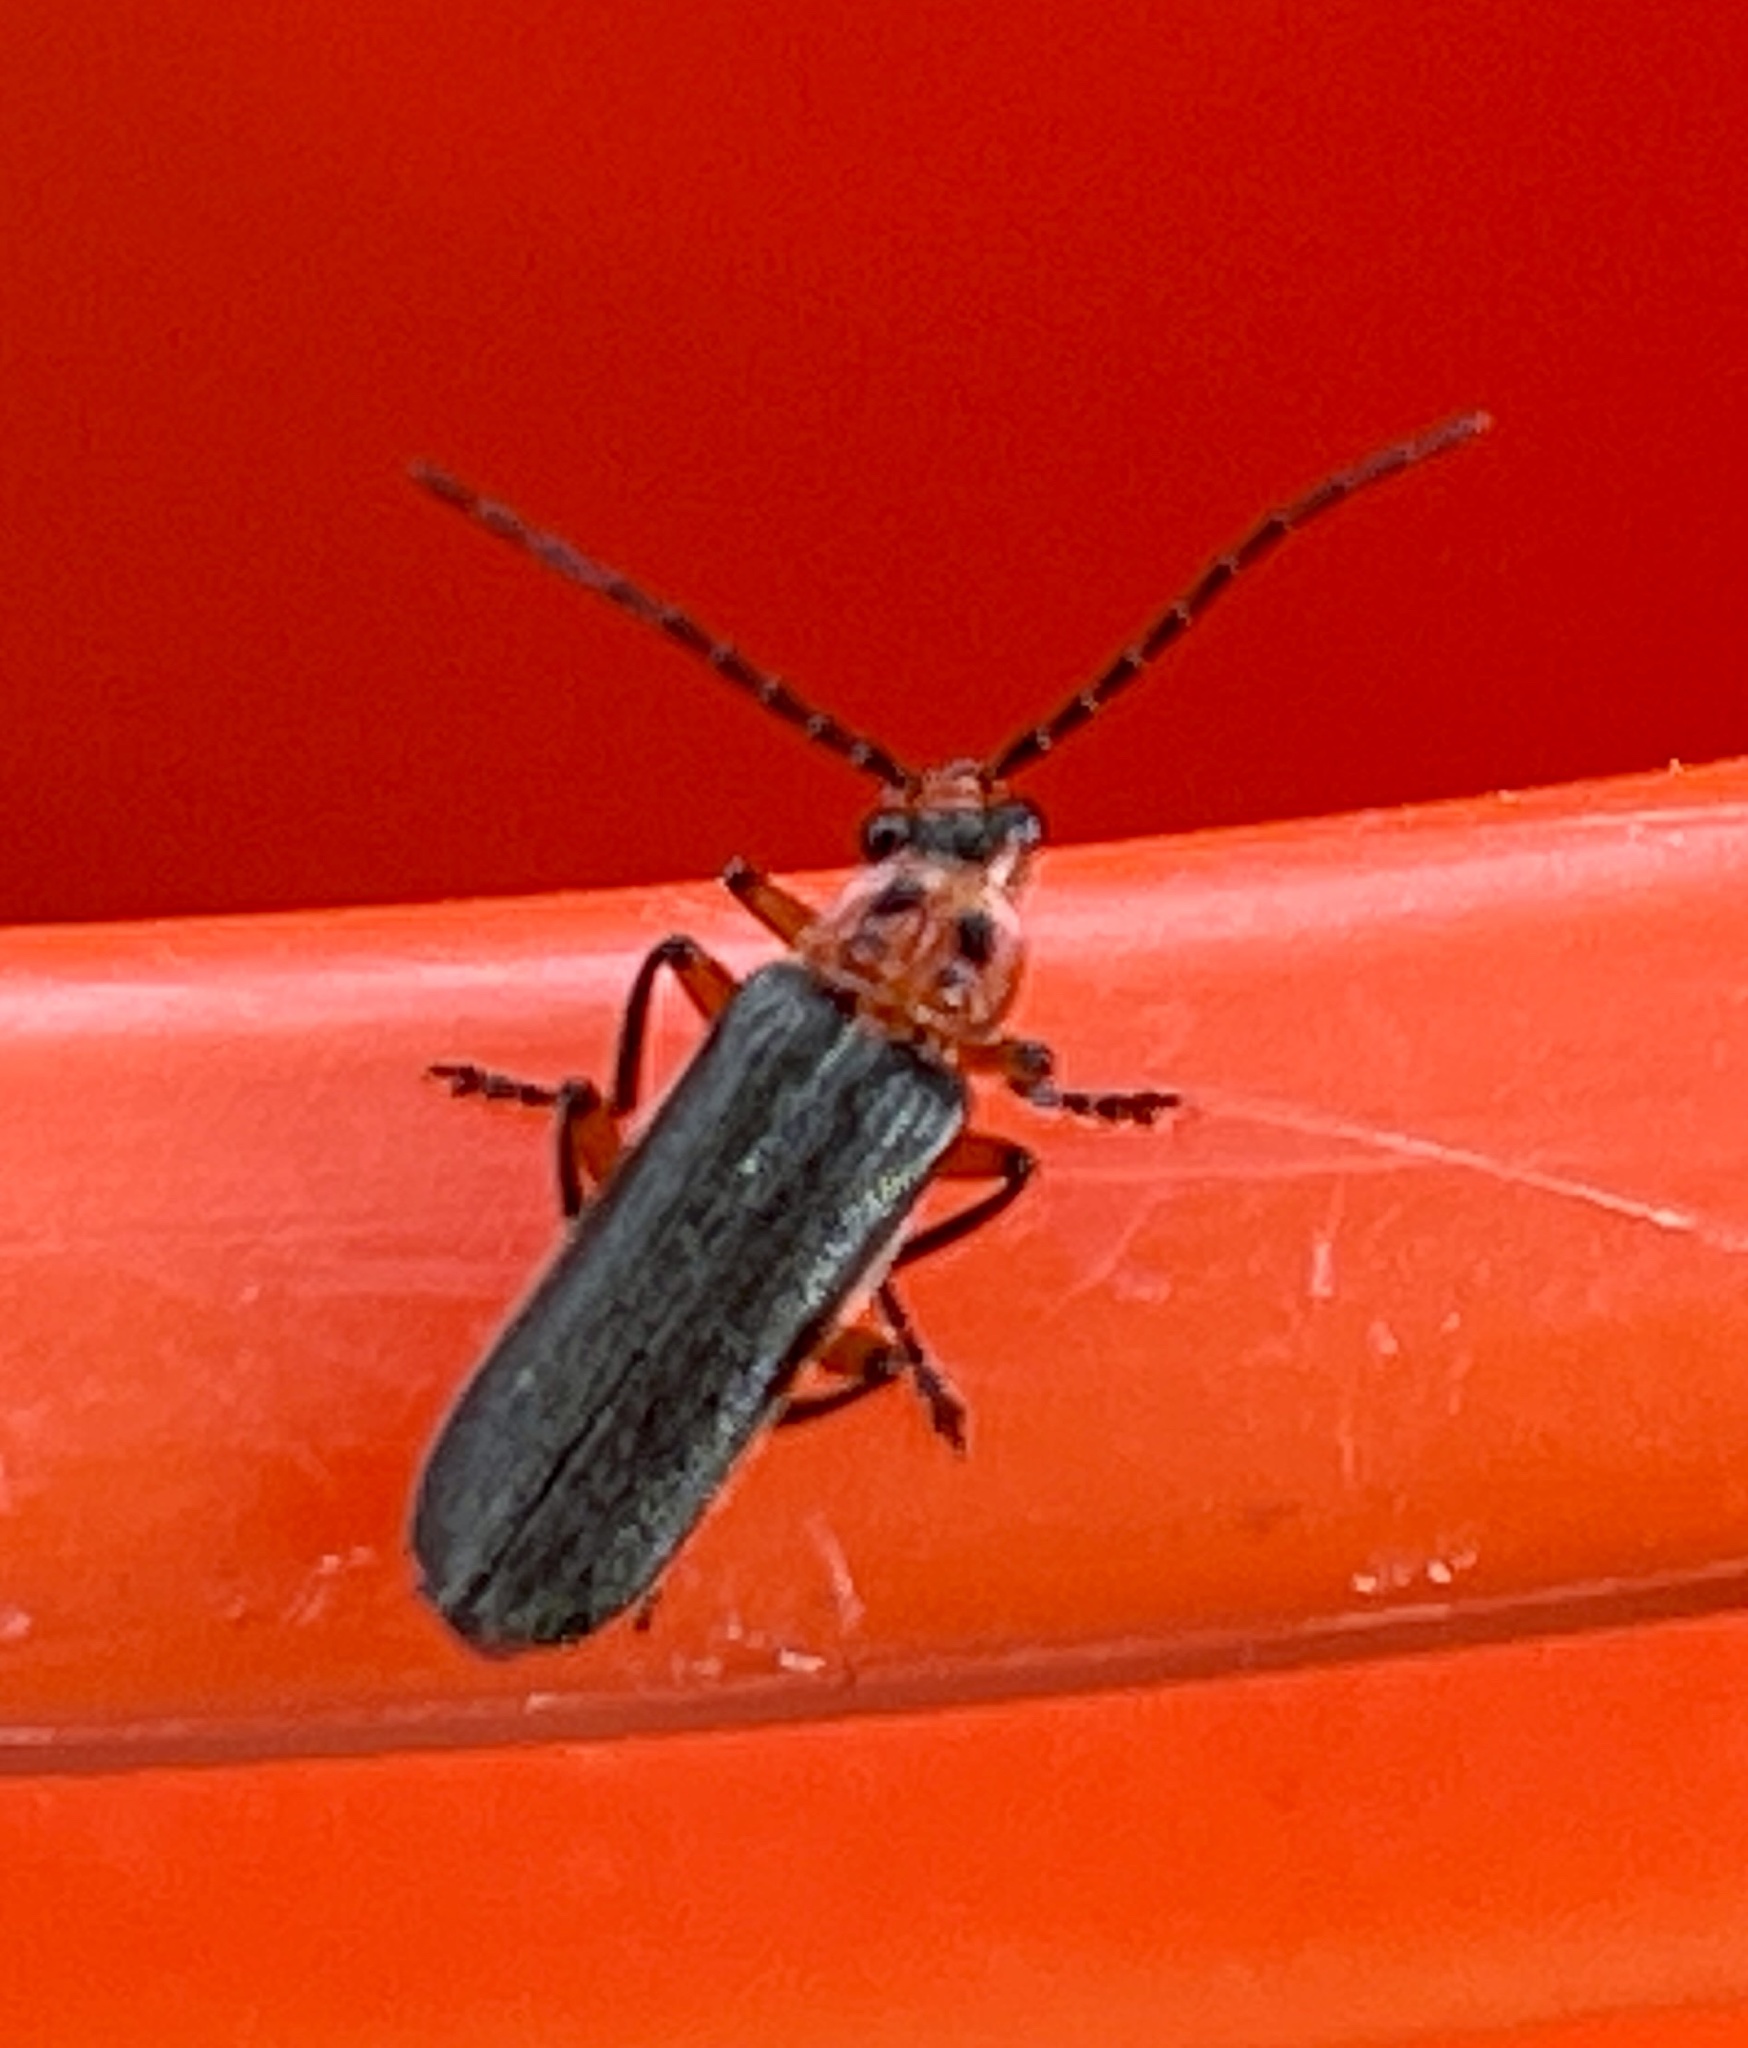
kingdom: Animalia
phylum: Arthropoda
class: Insecta
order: Coleoptera
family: Cantharidae
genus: Atalantycha
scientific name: Atalantycha bilineata
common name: Two-lined leatherwing
